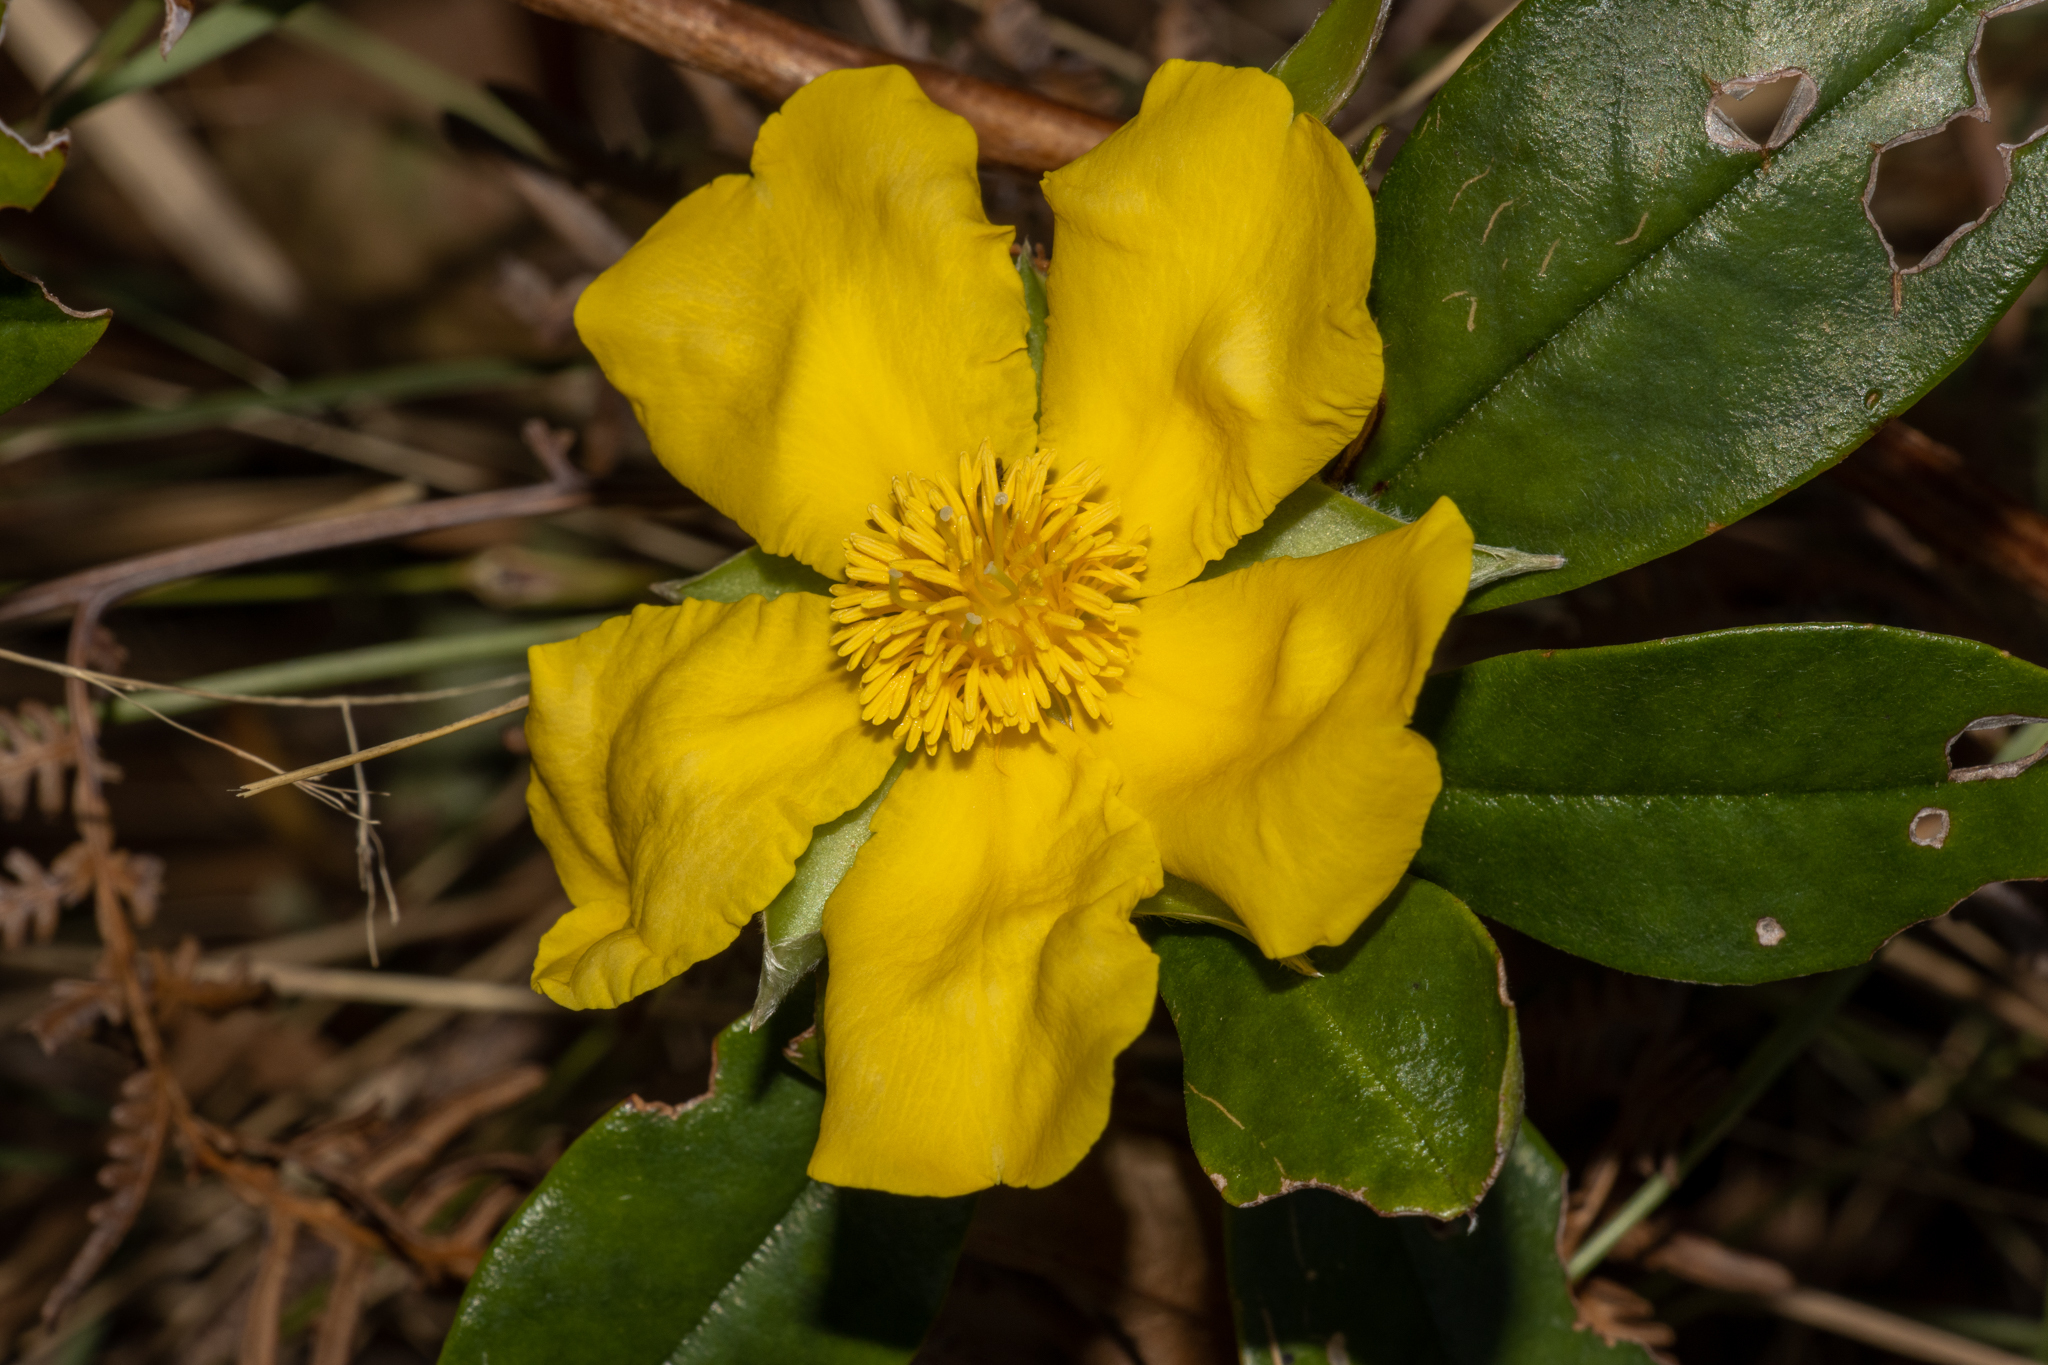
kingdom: Plantae
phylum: Tracheophyta
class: Magnoliopsida
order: Dilleniales
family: Dilleniaceae
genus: Hibbertia
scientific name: Hibbertia scandens
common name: Climbing guinea-flower
